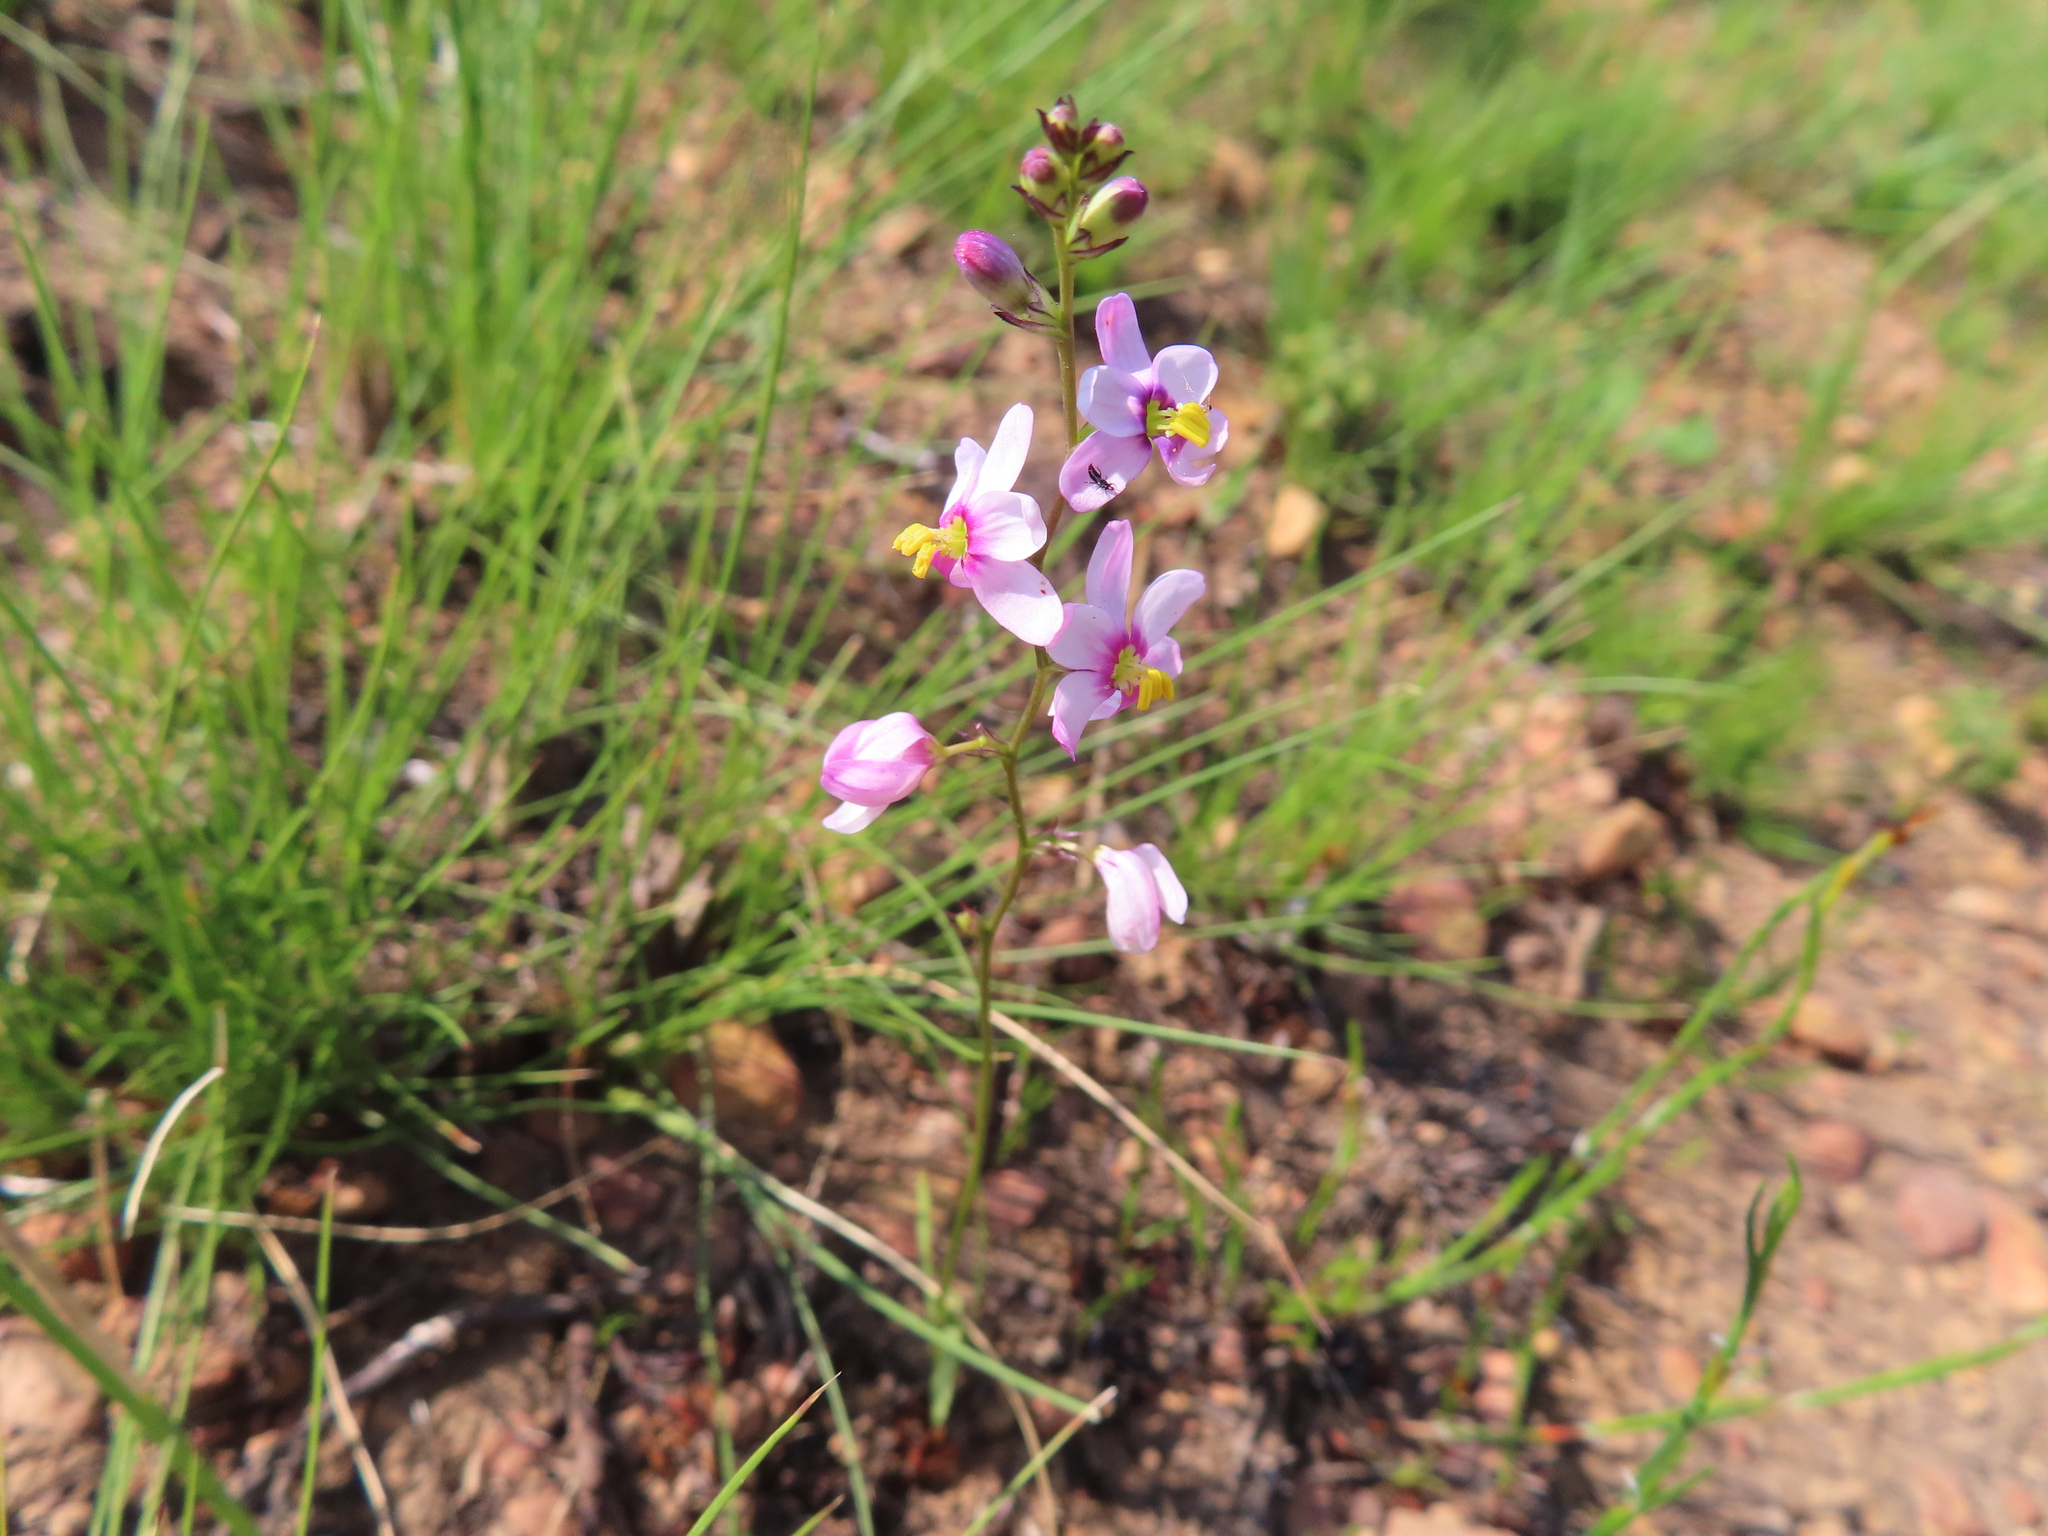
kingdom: Plantae
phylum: Tracheophyta
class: Liliopsida
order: Asparagales
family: Iridaceae
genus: Ixia
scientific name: Ixia scillaris
